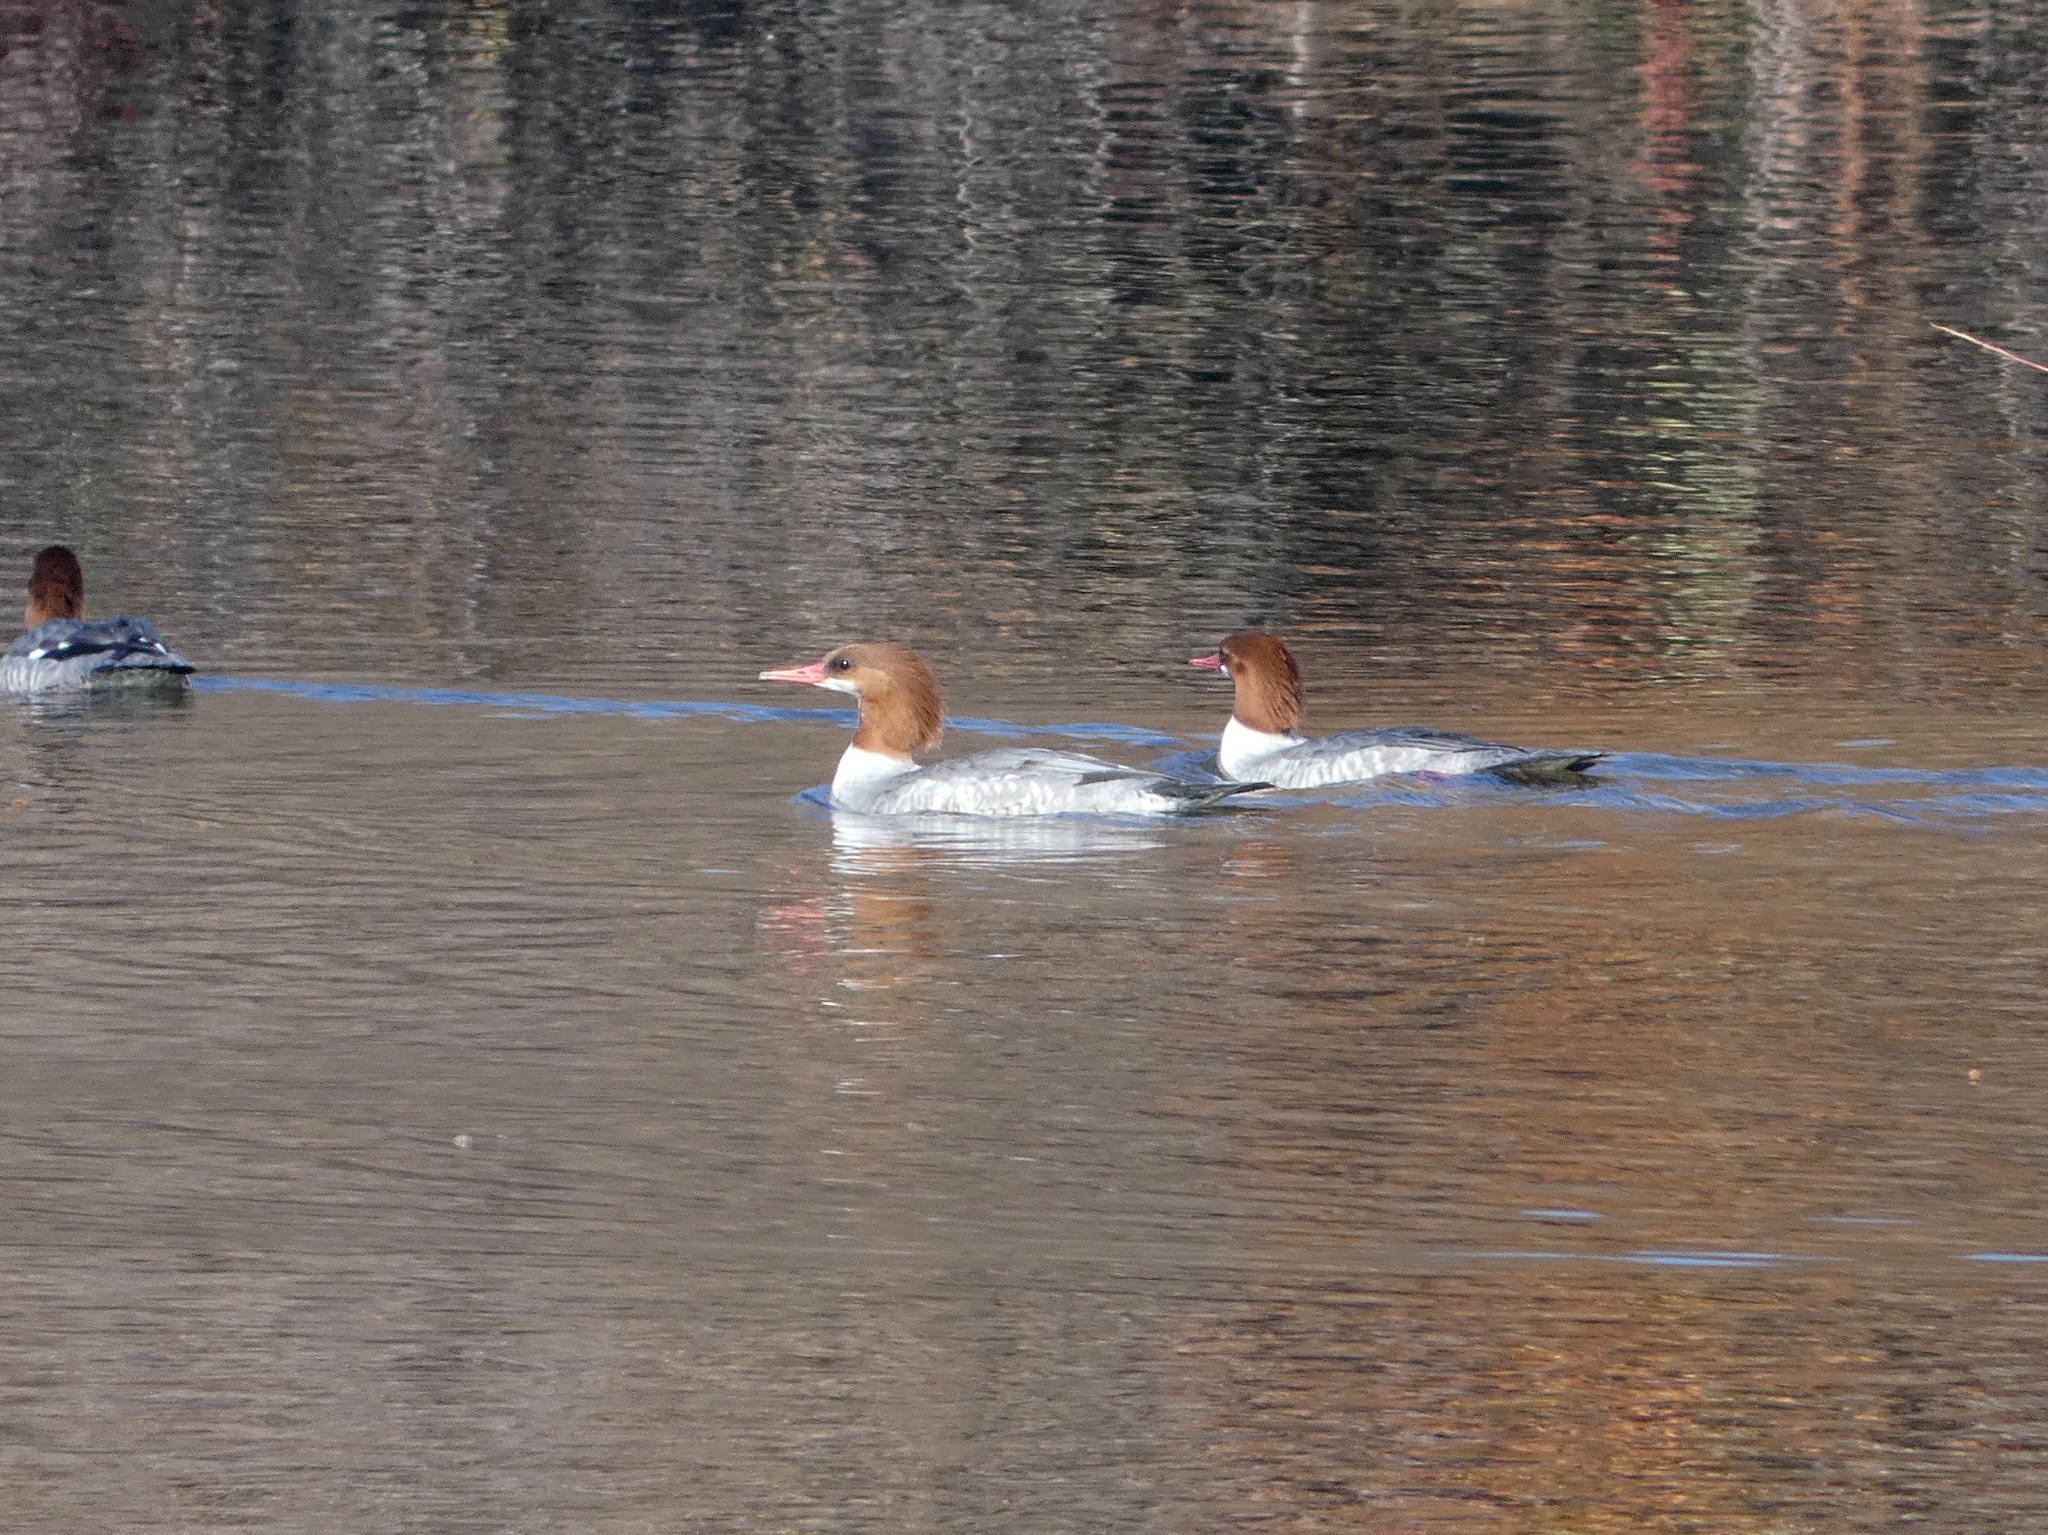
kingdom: Animalia
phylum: Chordata
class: Aves
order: Anseriformes
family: Anatidae
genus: Mergus
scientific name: Mergus merganser
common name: Common merganser
